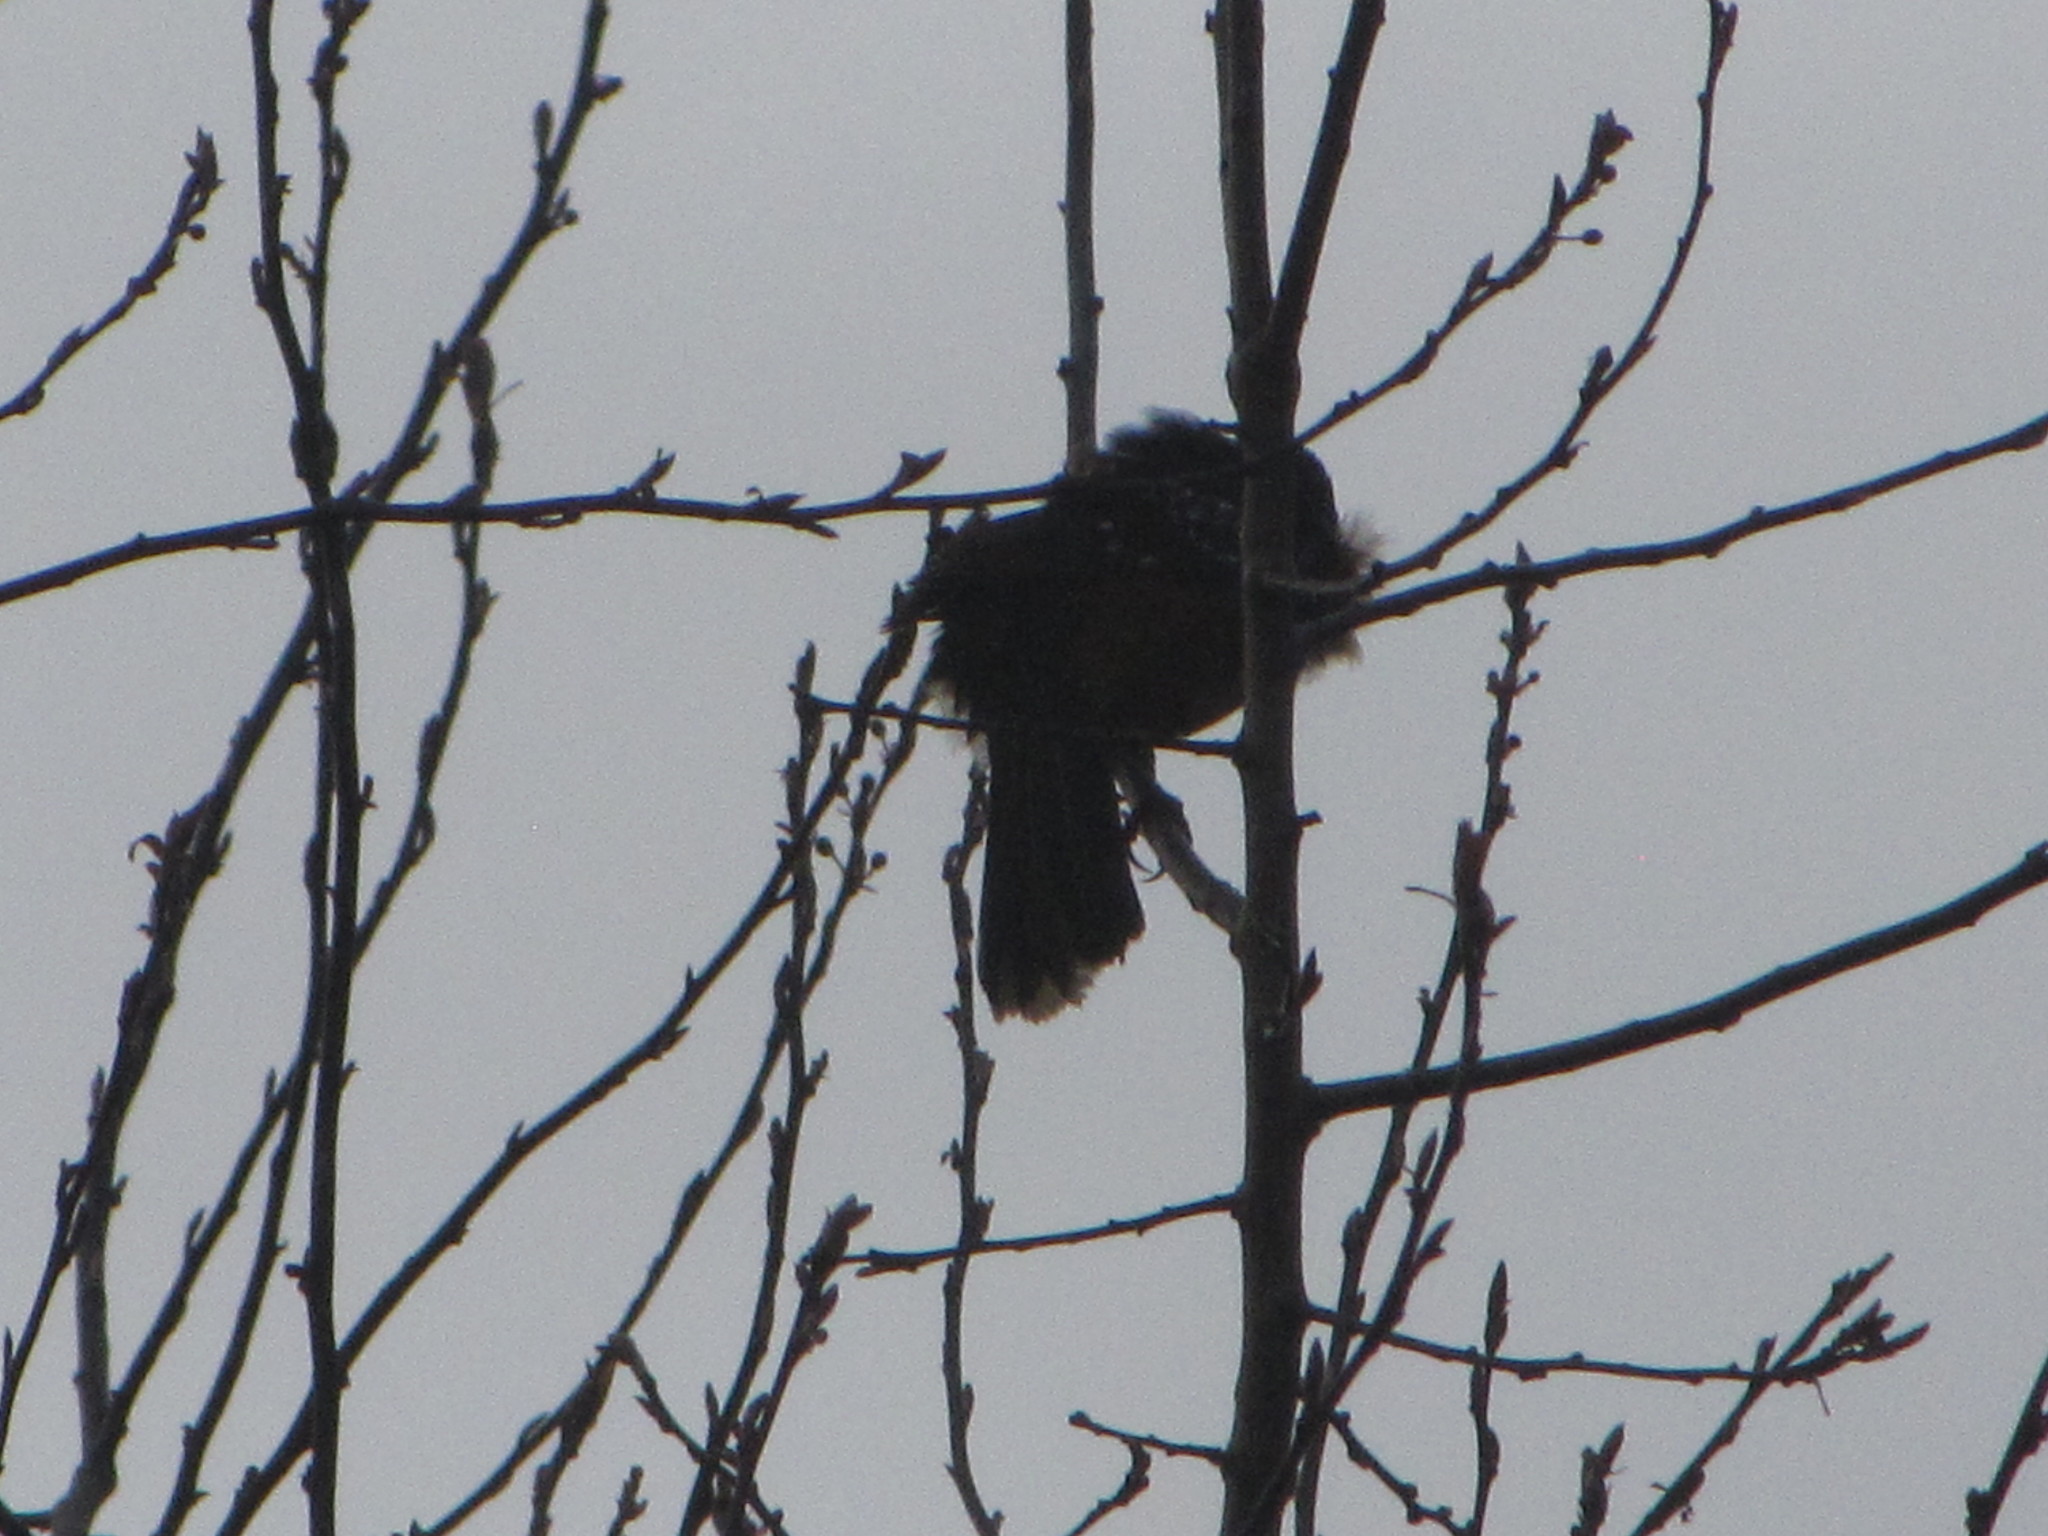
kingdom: Animalia
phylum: Chordata
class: Aves
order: Passeriformes
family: Passerellidae
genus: Pipilo
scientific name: Pipilo maculatus
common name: Spotted towhee
